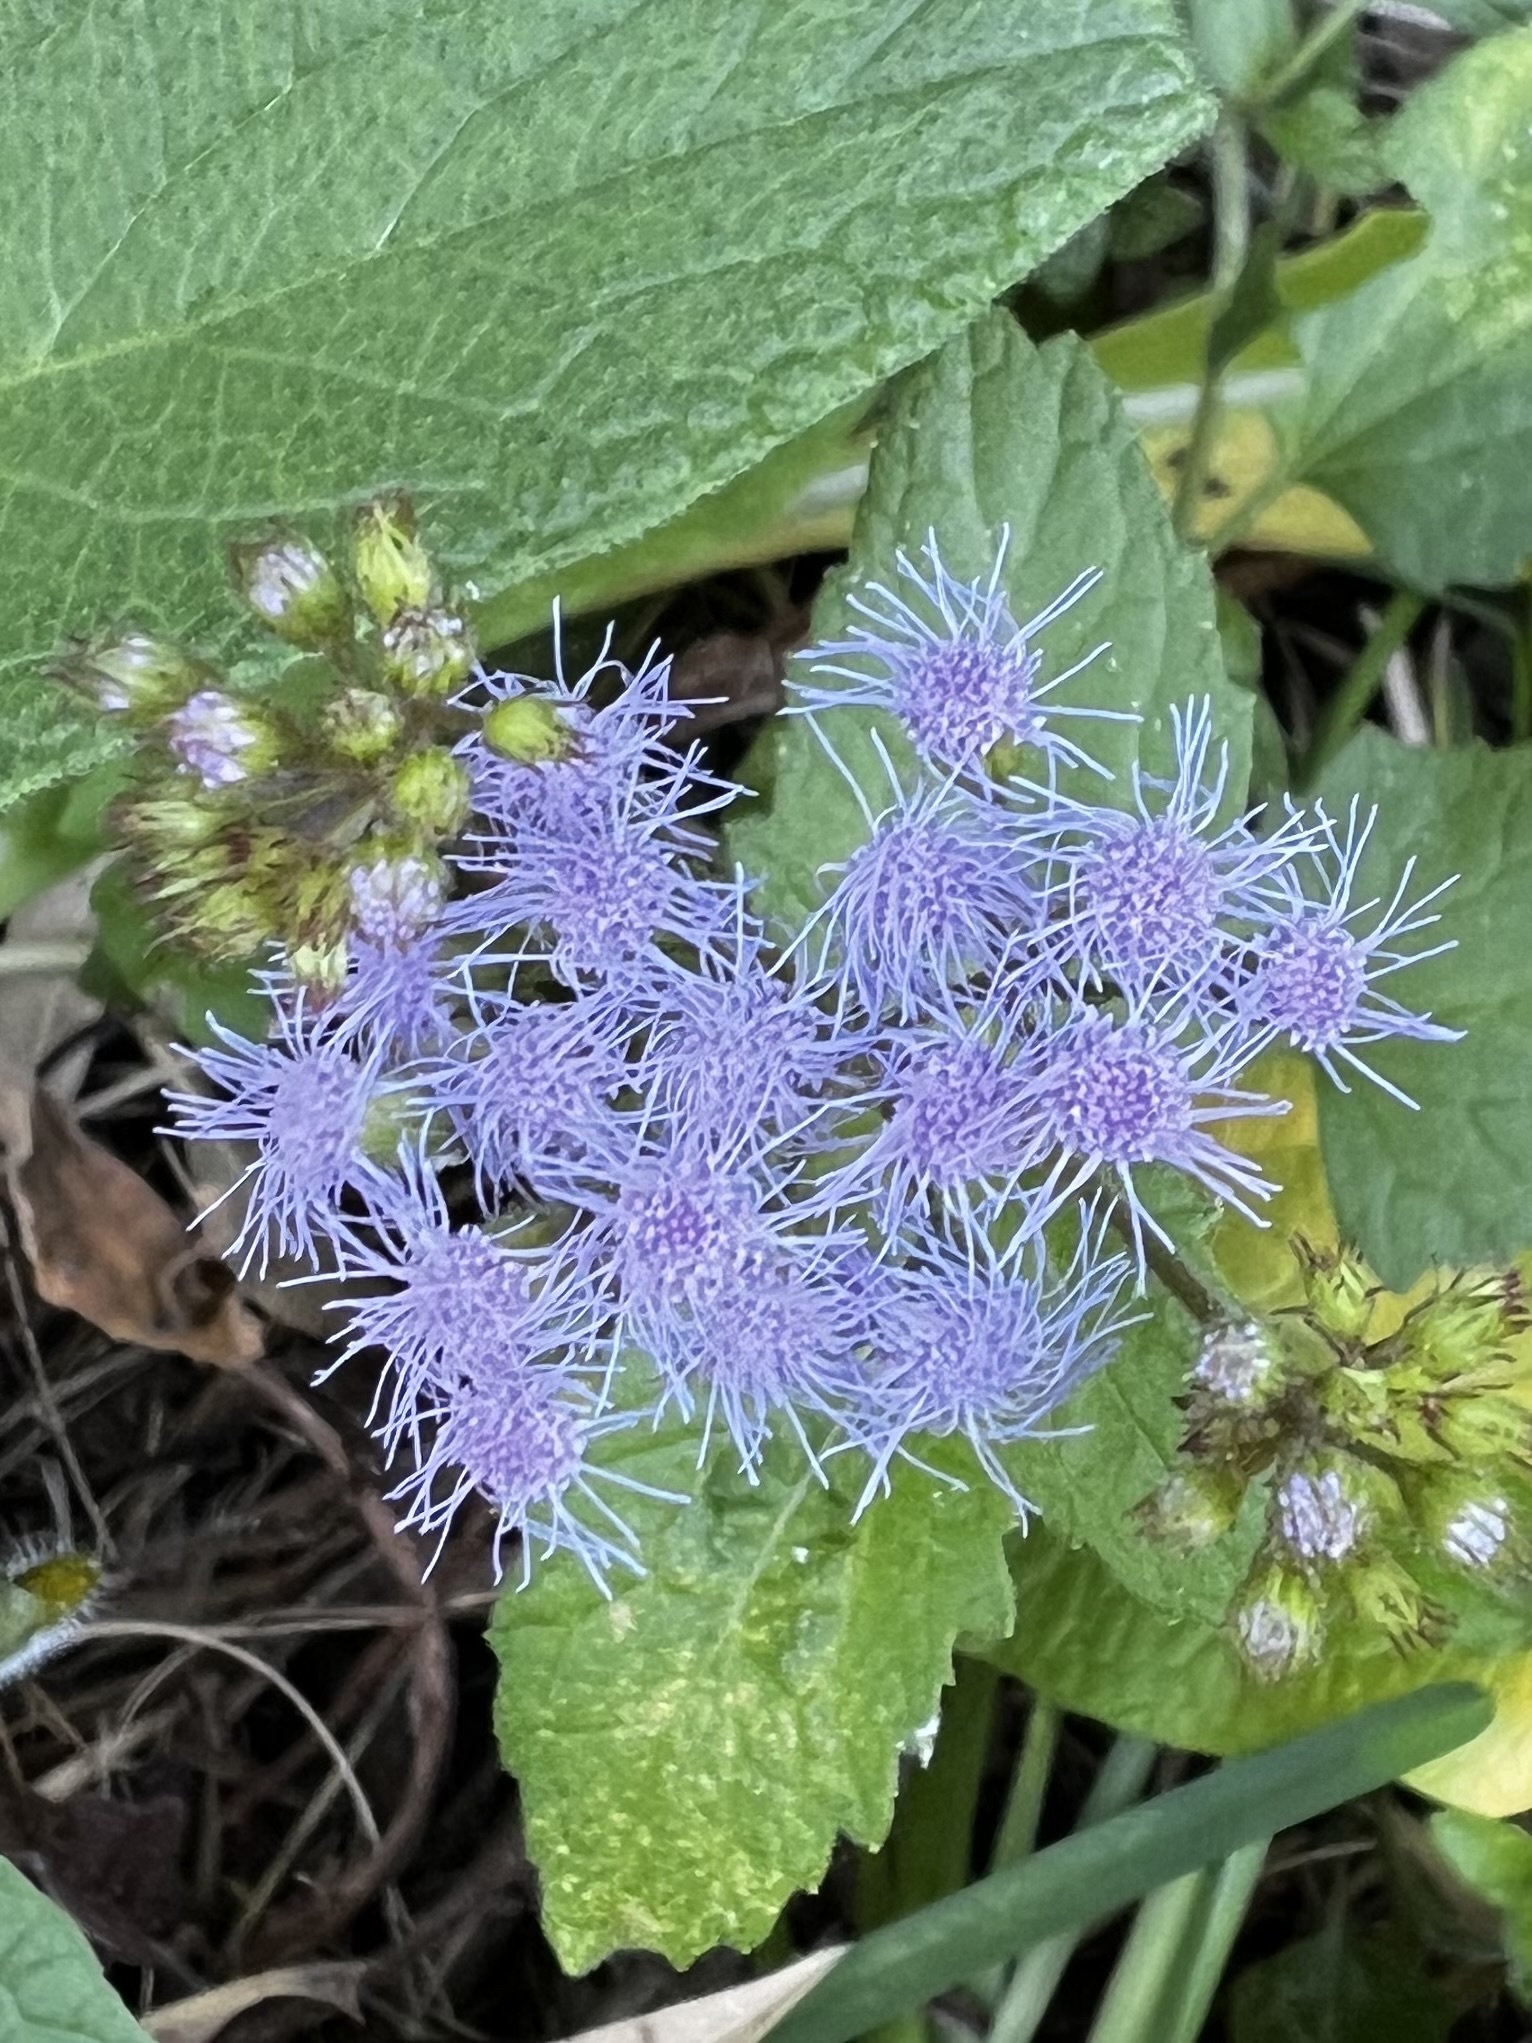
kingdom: Plantae
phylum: Tracheophyta
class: Magnoliopsida
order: Asterales
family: Asteraceae
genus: Conoclinium
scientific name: Conoclinium coelestinum
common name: Blue mistflower
